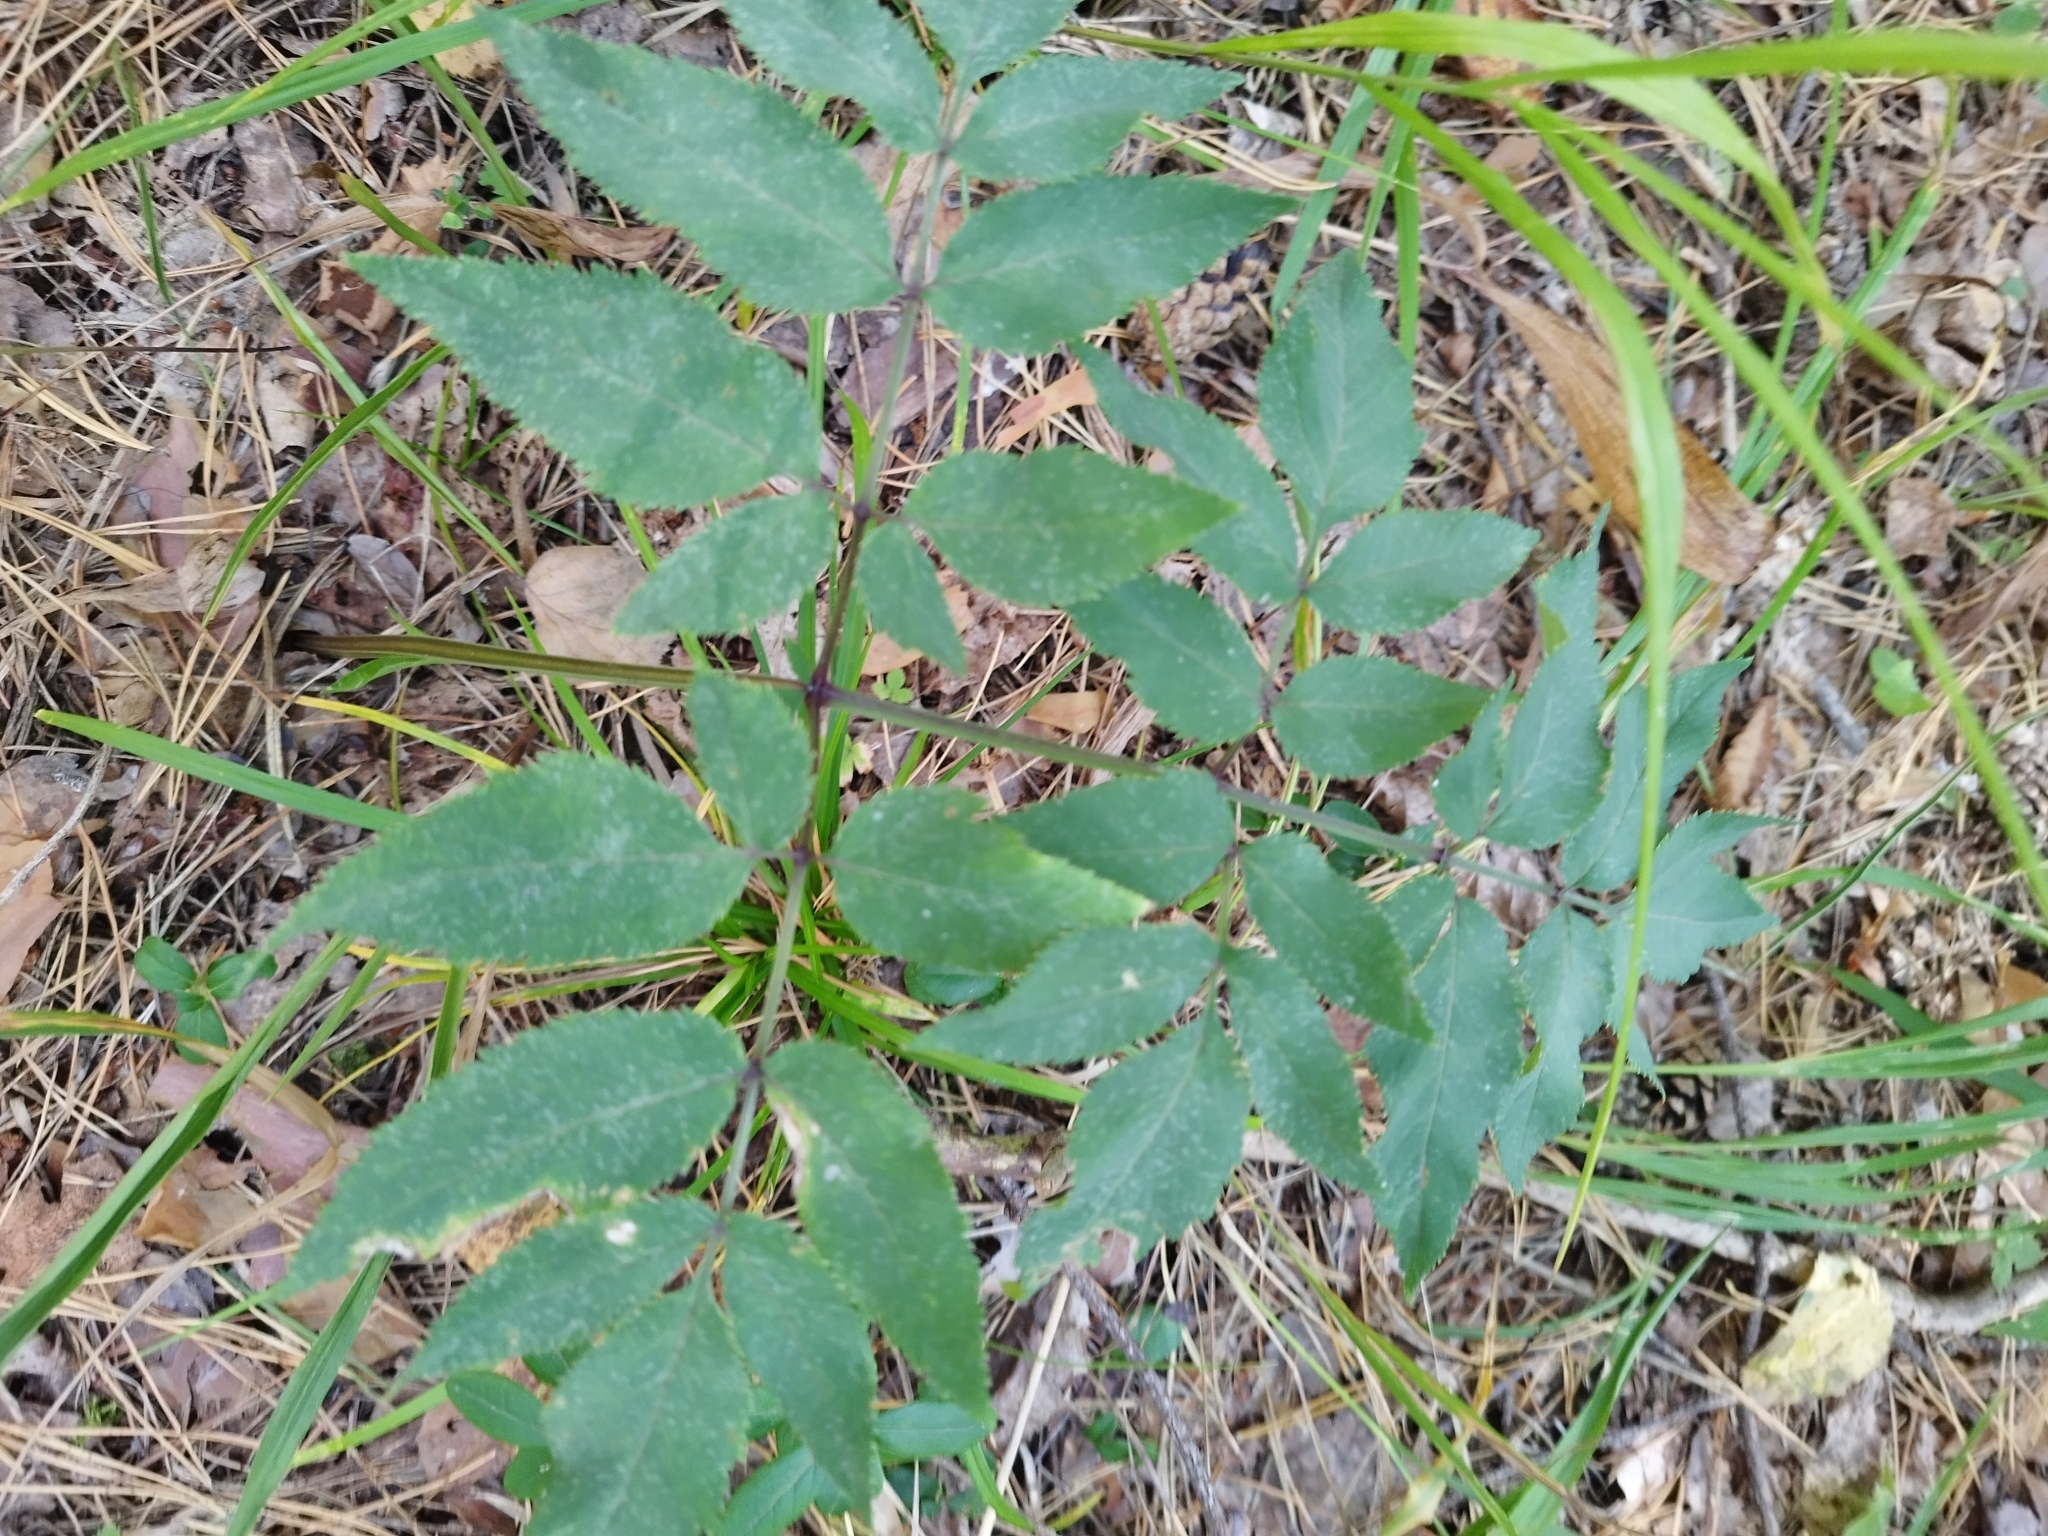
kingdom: Plantae
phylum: Tracheophyta
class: Magnoliopsida
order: Apiales
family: Apiaceae
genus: Angelica
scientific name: Angelica sylvestris
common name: Wild angelica
